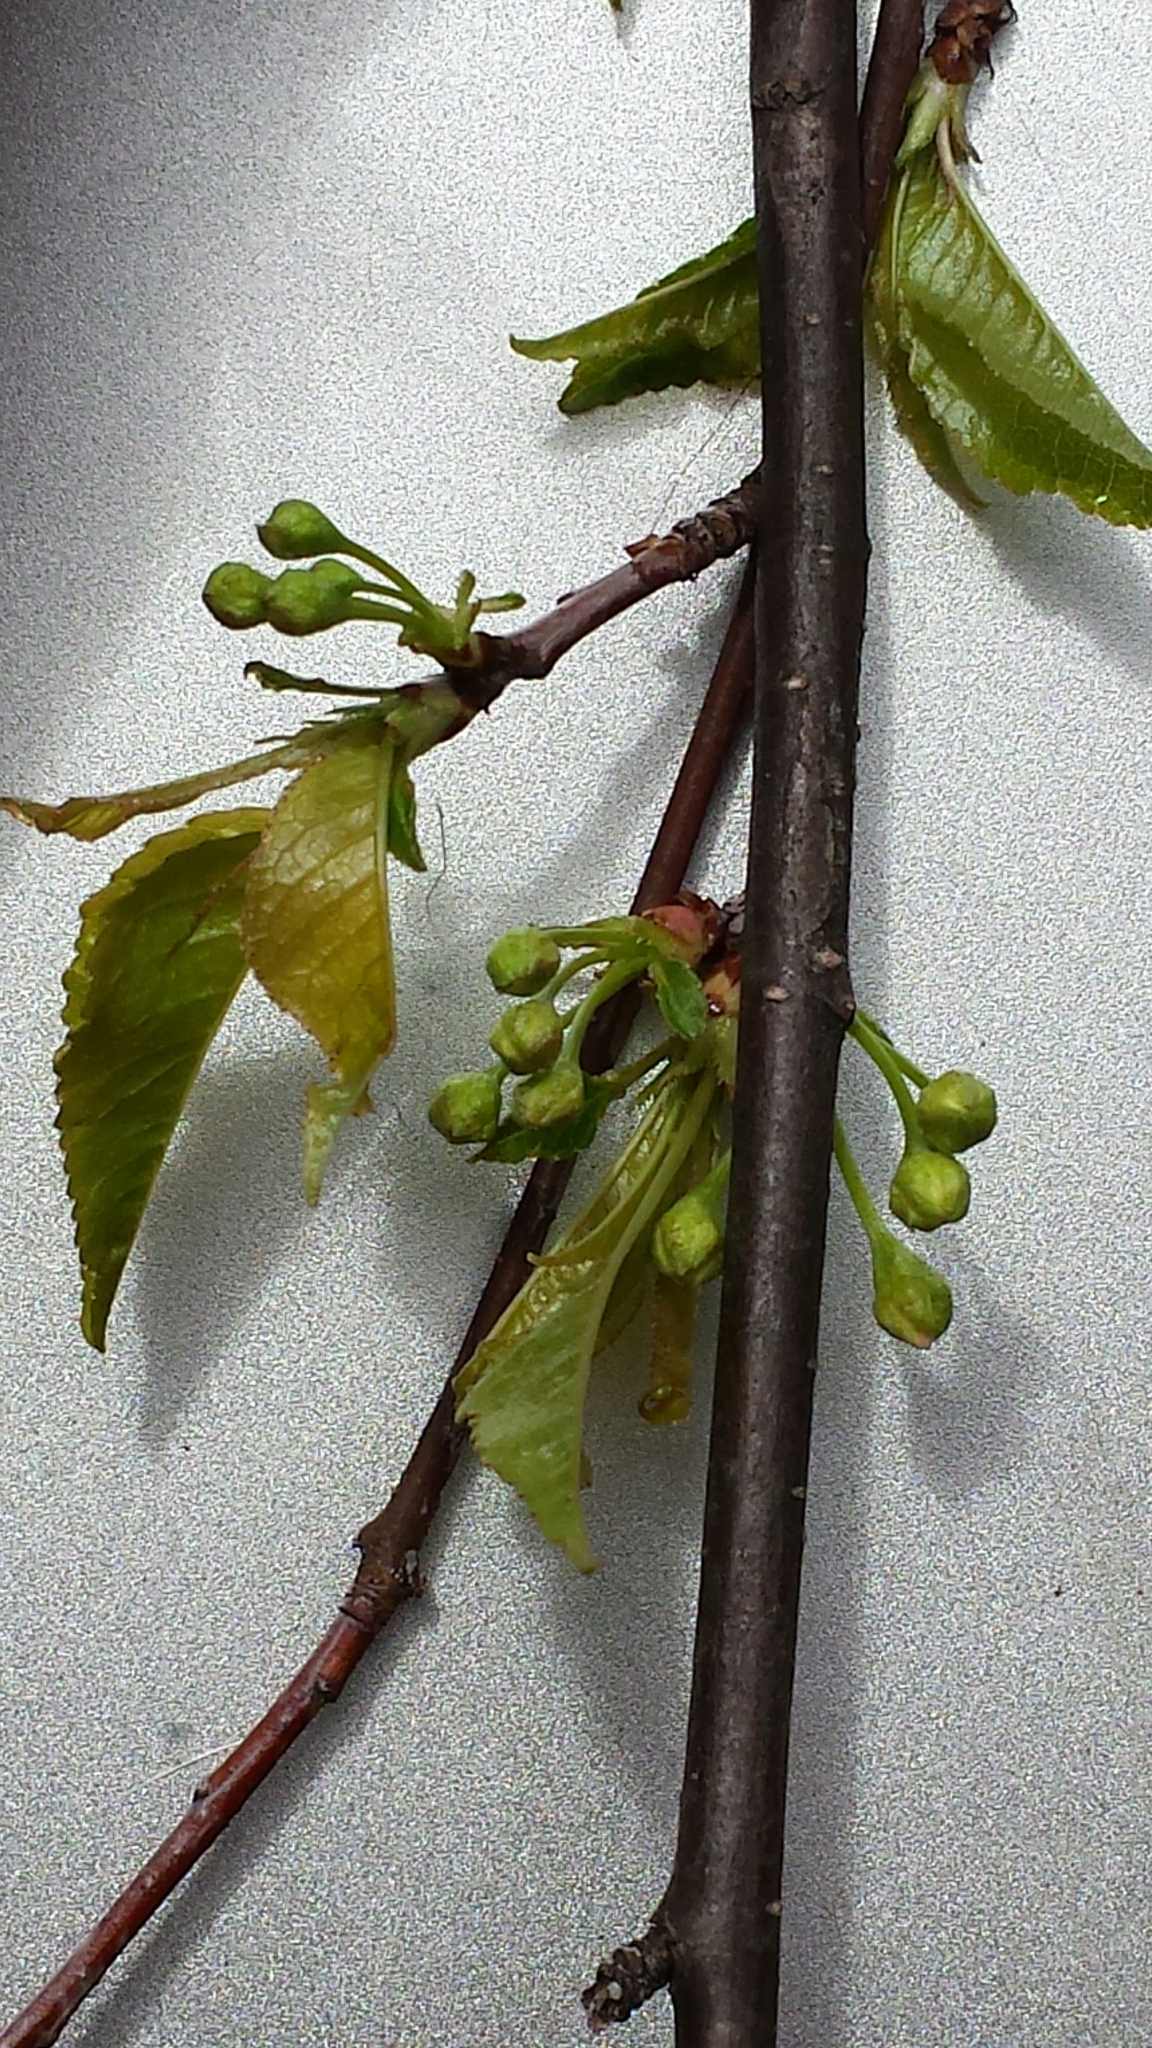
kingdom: Plantae
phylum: Tracheophyta
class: Magnoliopsida
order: Rosales
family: Rosaceae
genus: Prunus
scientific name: Prunus pensylvanica
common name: Pin cherry
